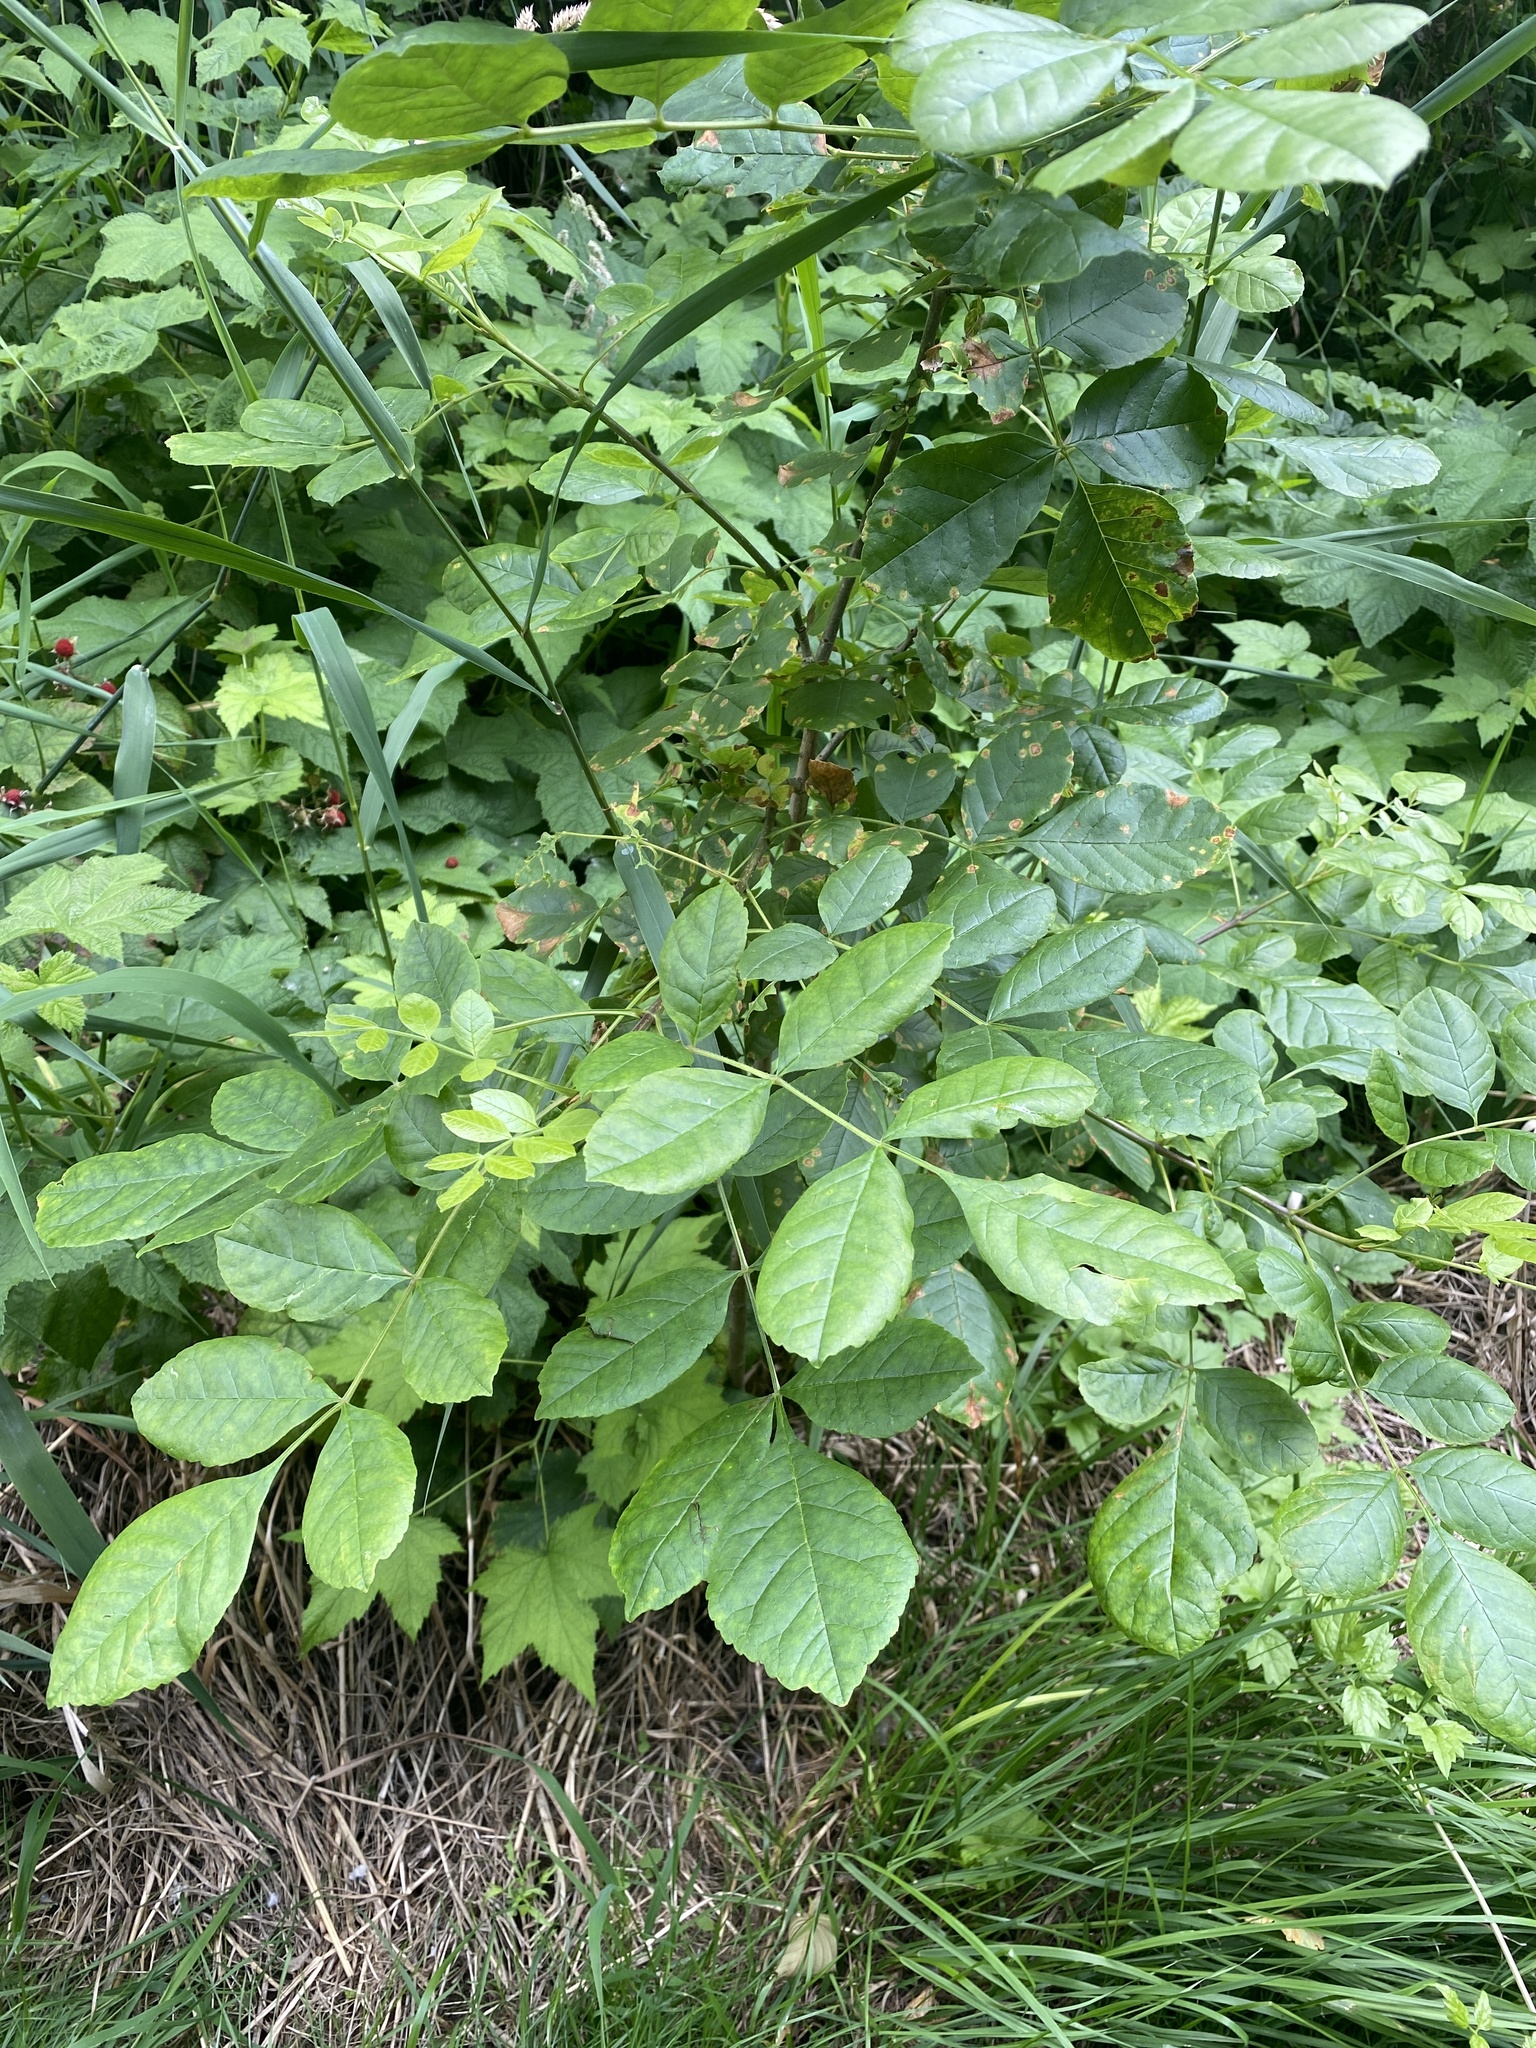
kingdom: Plantae
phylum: Tracheophyta
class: Magnoliopsida
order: Lamiales
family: Oleaceae
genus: Fraxinus
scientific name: Fraxinus latifolia
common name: Oregon ash
